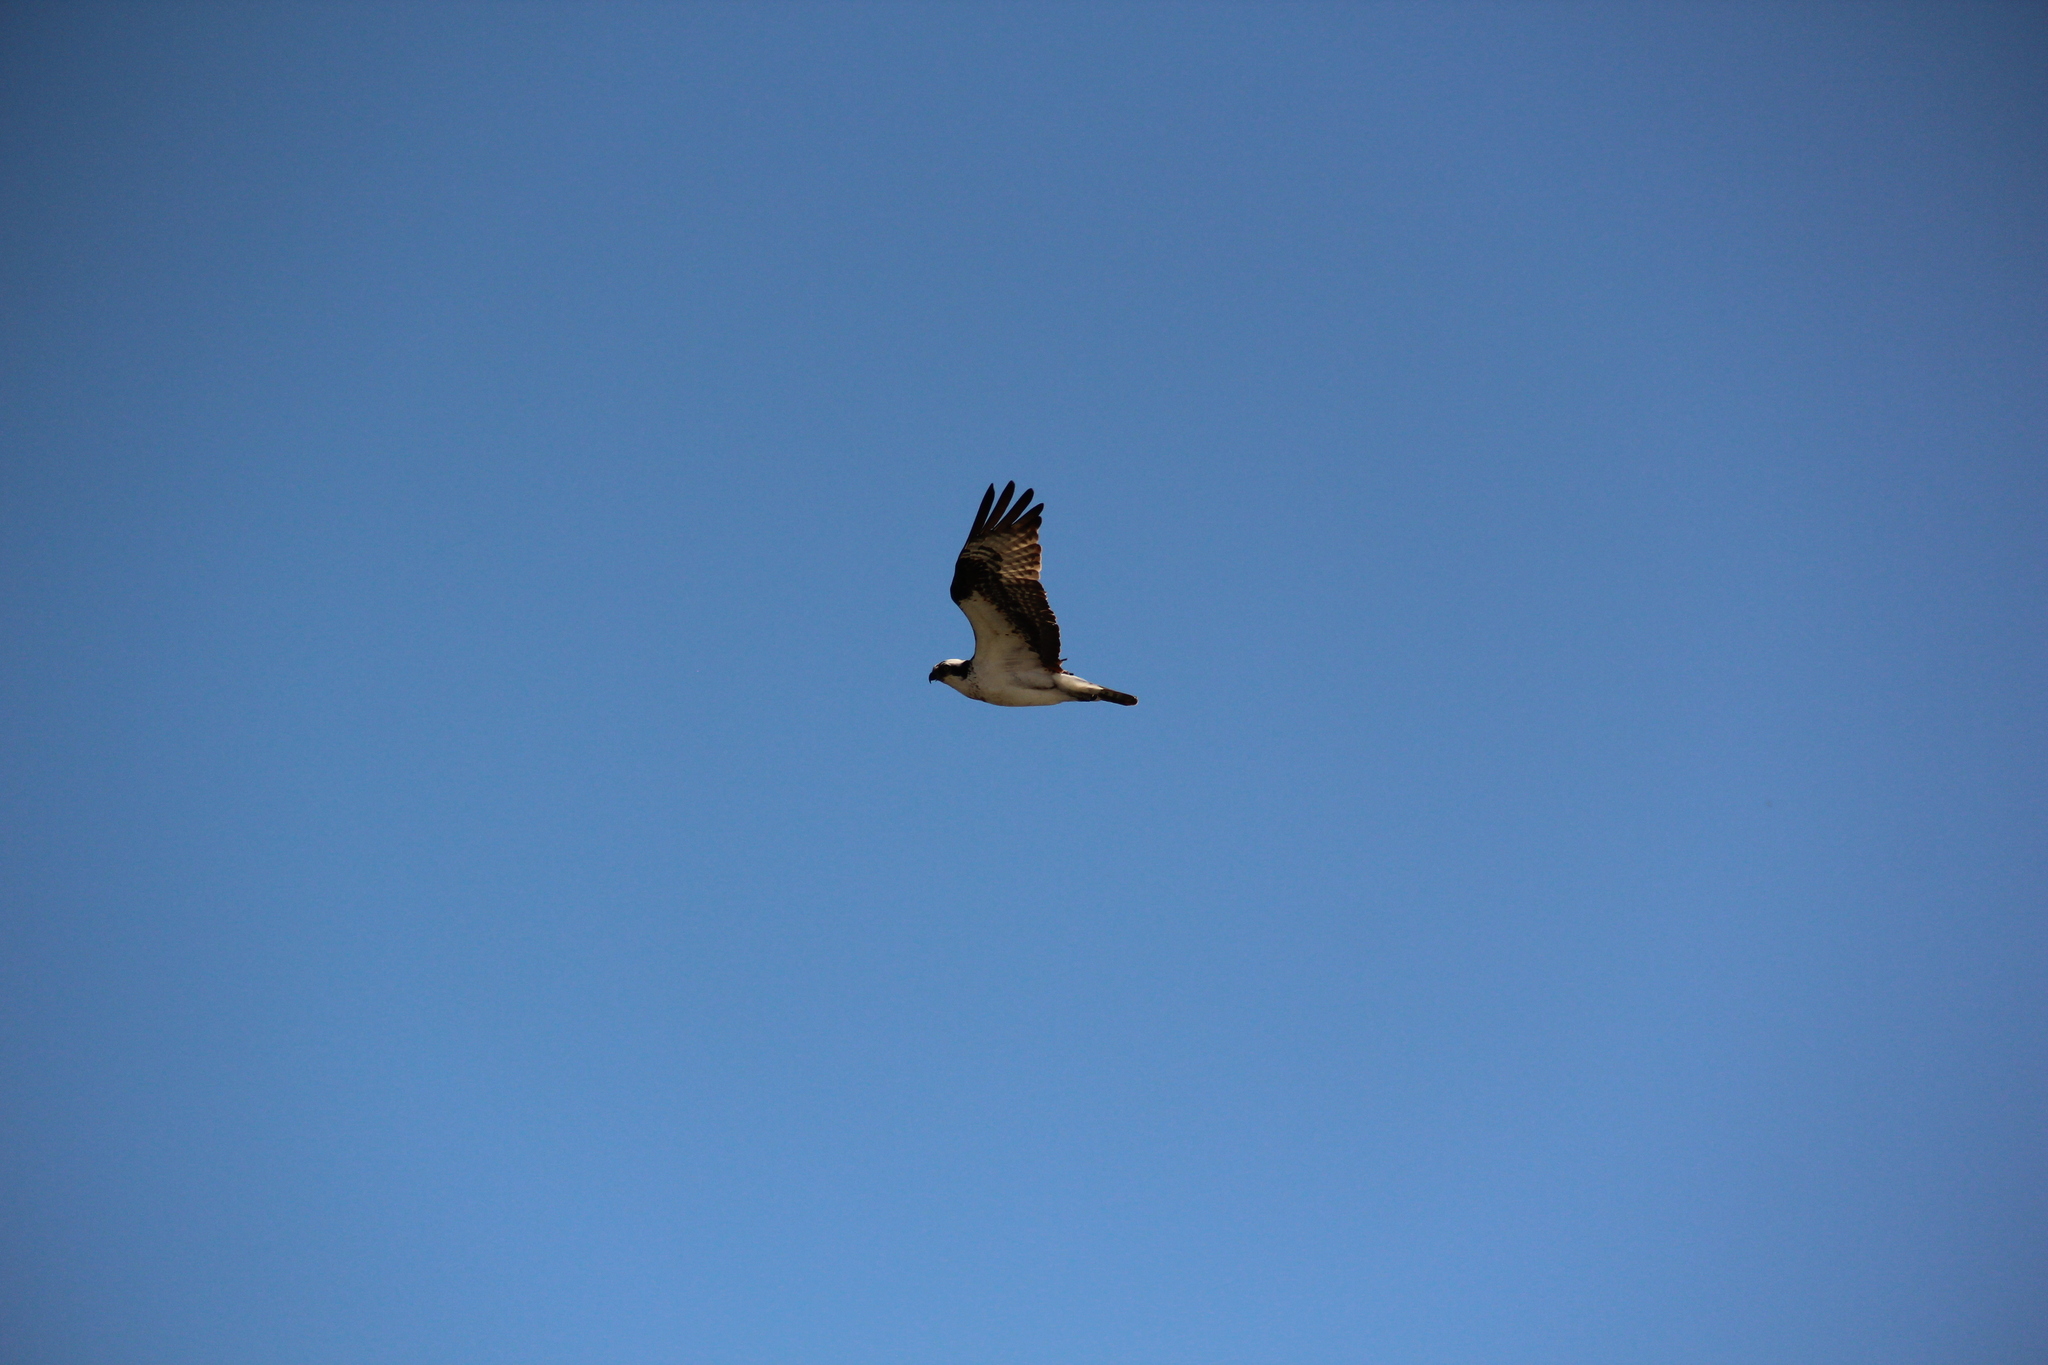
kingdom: Animalia
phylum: Chordata
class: Aves
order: Accipitriformes
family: Pandionidae
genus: Pandion
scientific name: Pandion haliaetus
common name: Osprey
